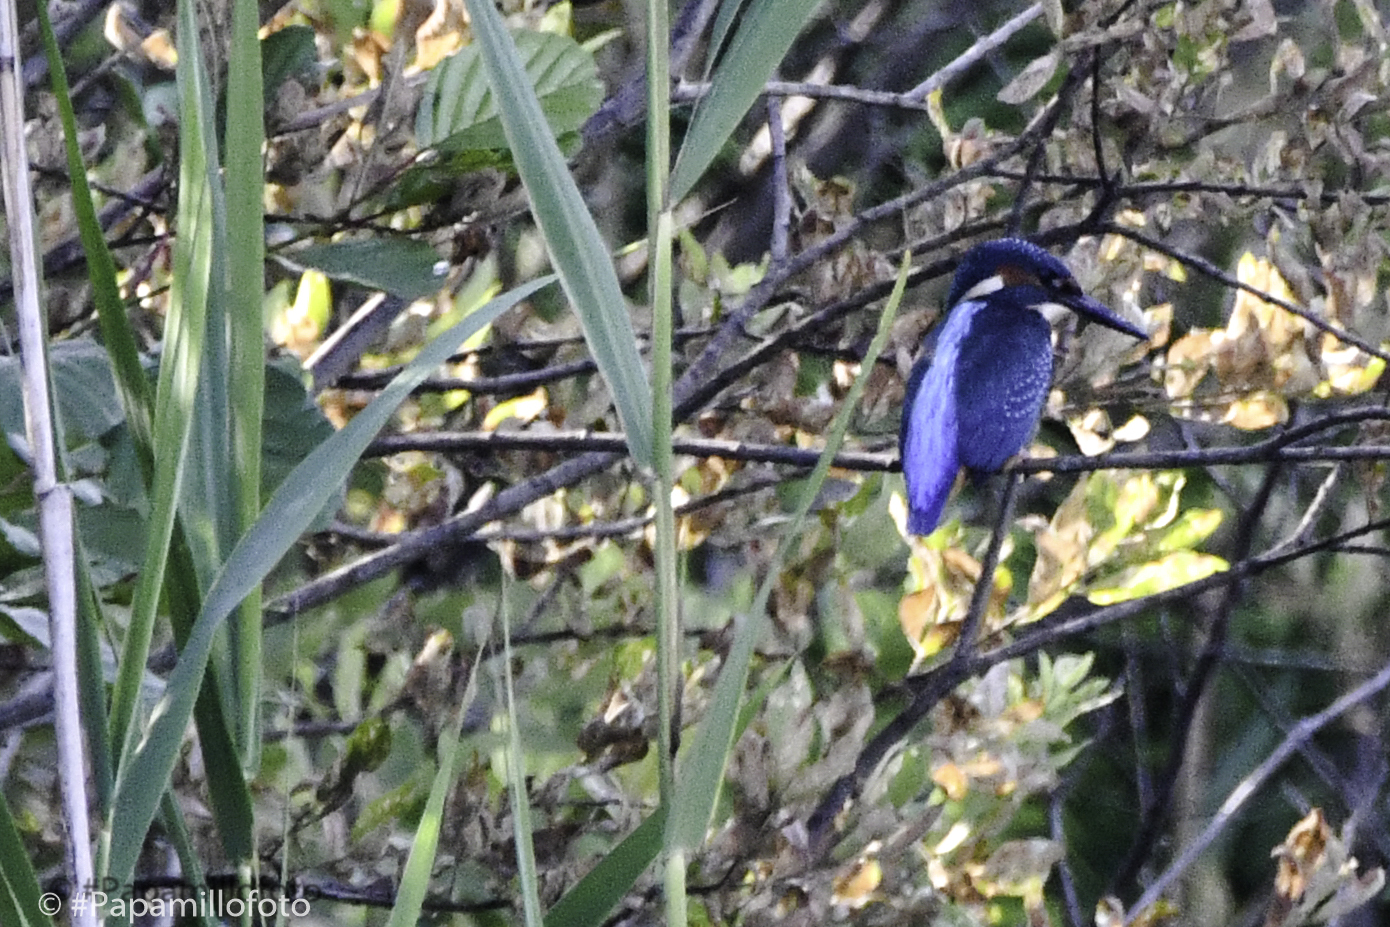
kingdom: Animalia
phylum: Chordata
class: Aves
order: Coraciiformes
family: Alcedinidae
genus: Alcedo
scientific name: Alcedo atthis
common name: Common kingfisher
